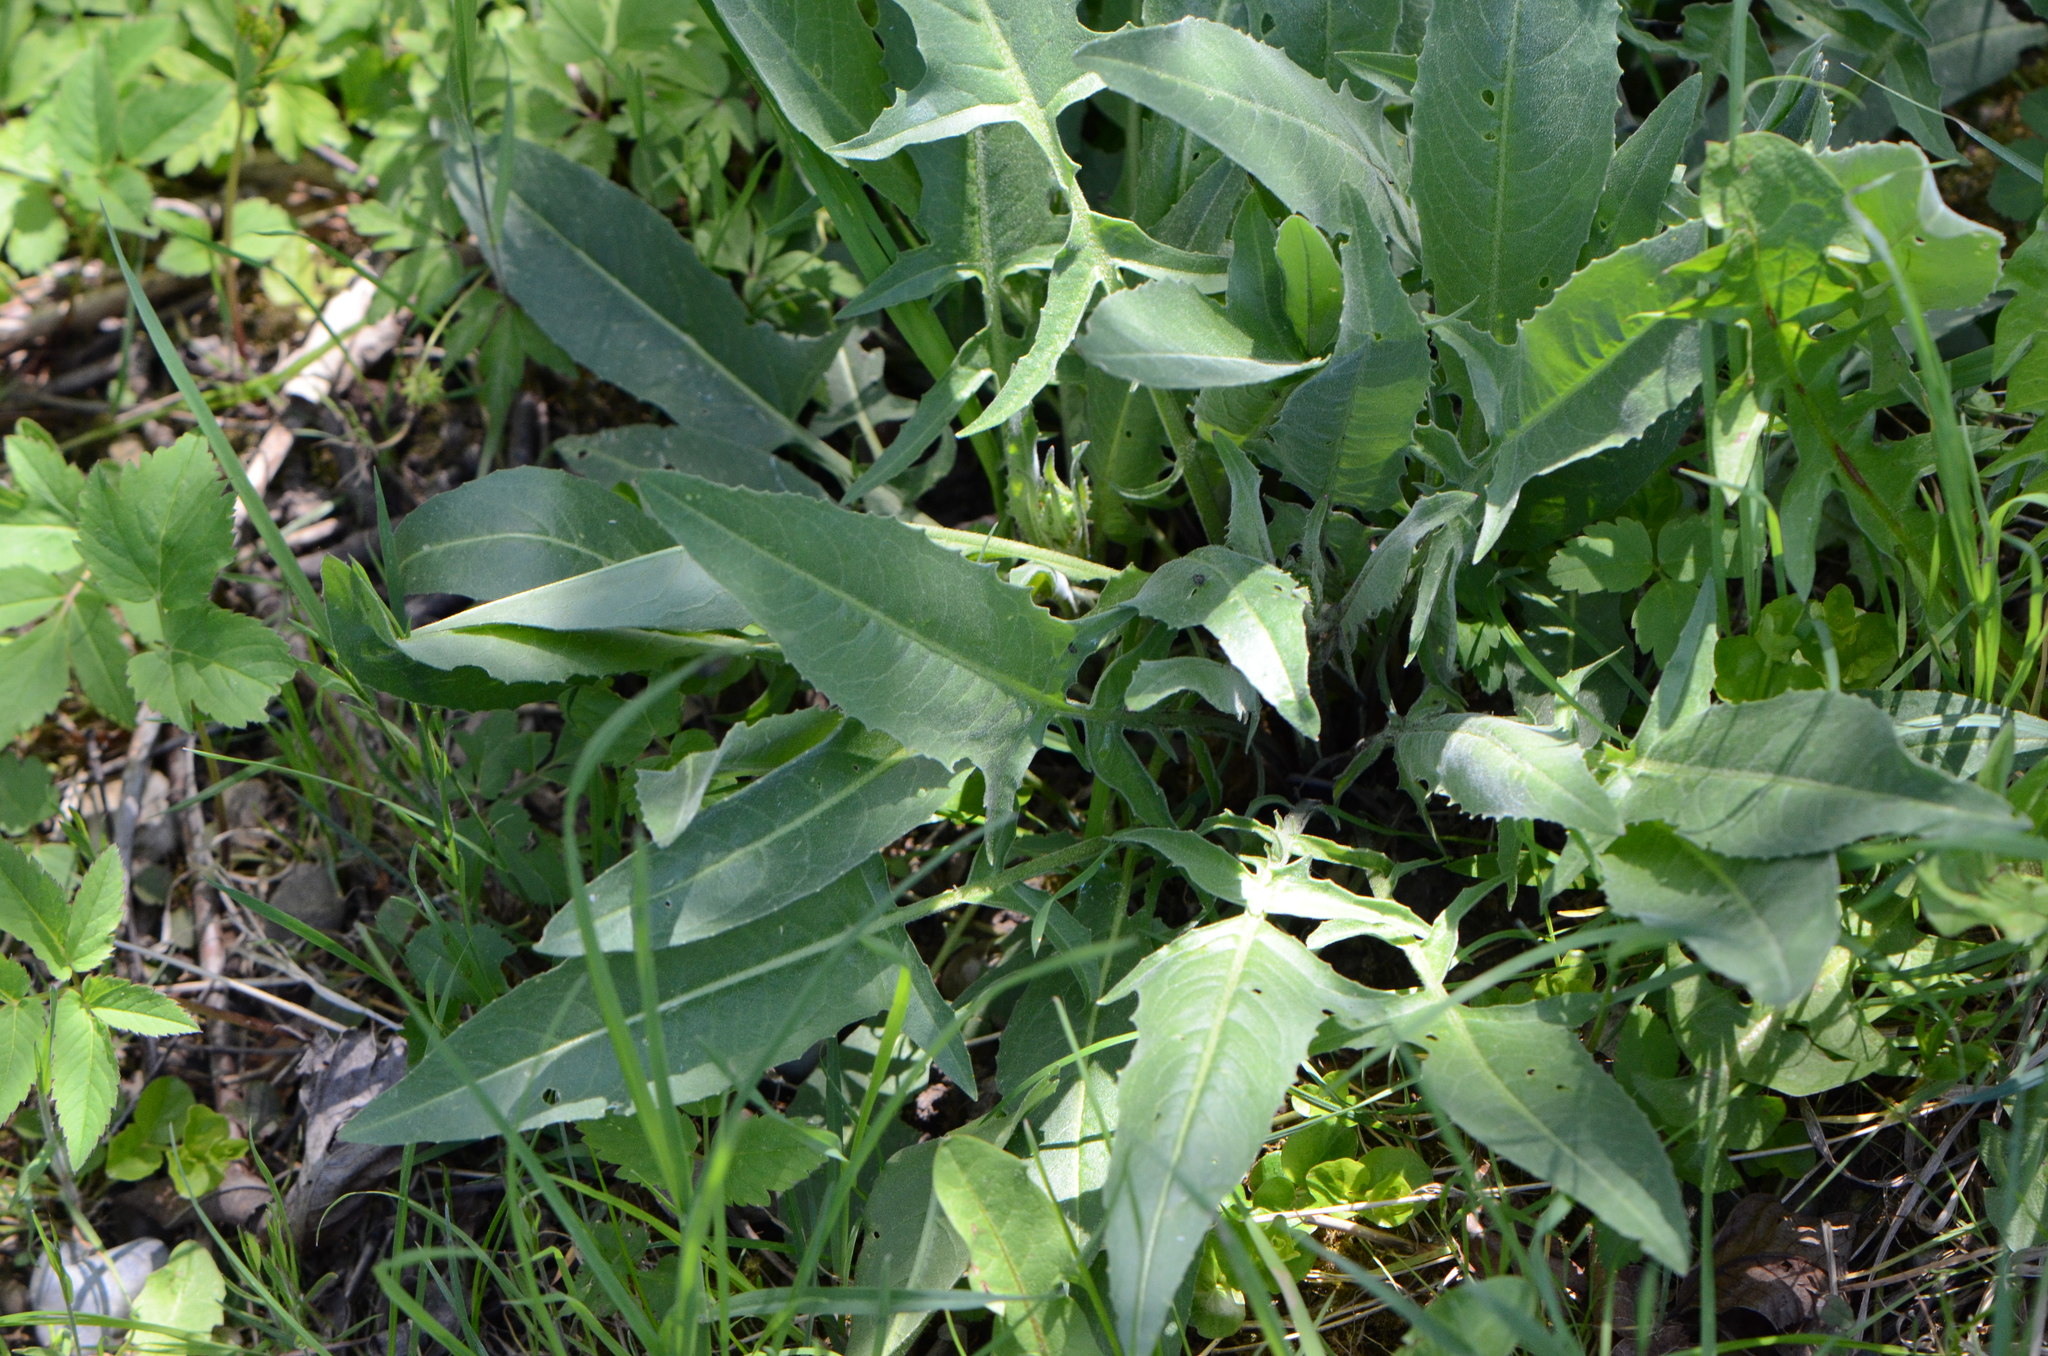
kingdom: Plantae
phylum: Tracheophyta
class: Magnoliopsida
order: Brassicales
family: Brassicaceae
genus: Bunias
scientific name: Bunias orientalis
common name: Warty-cabbage
